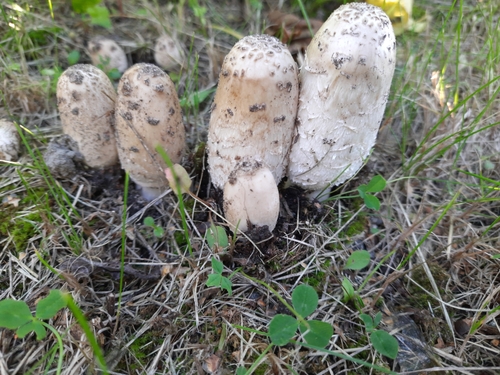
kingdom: Fungi
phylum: Basidiomycota
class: Agaricomycetes
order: Agaricales
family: Agaricaceae
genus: Coprinus
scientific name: Coprinus comatus
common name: Lawyer's wig
